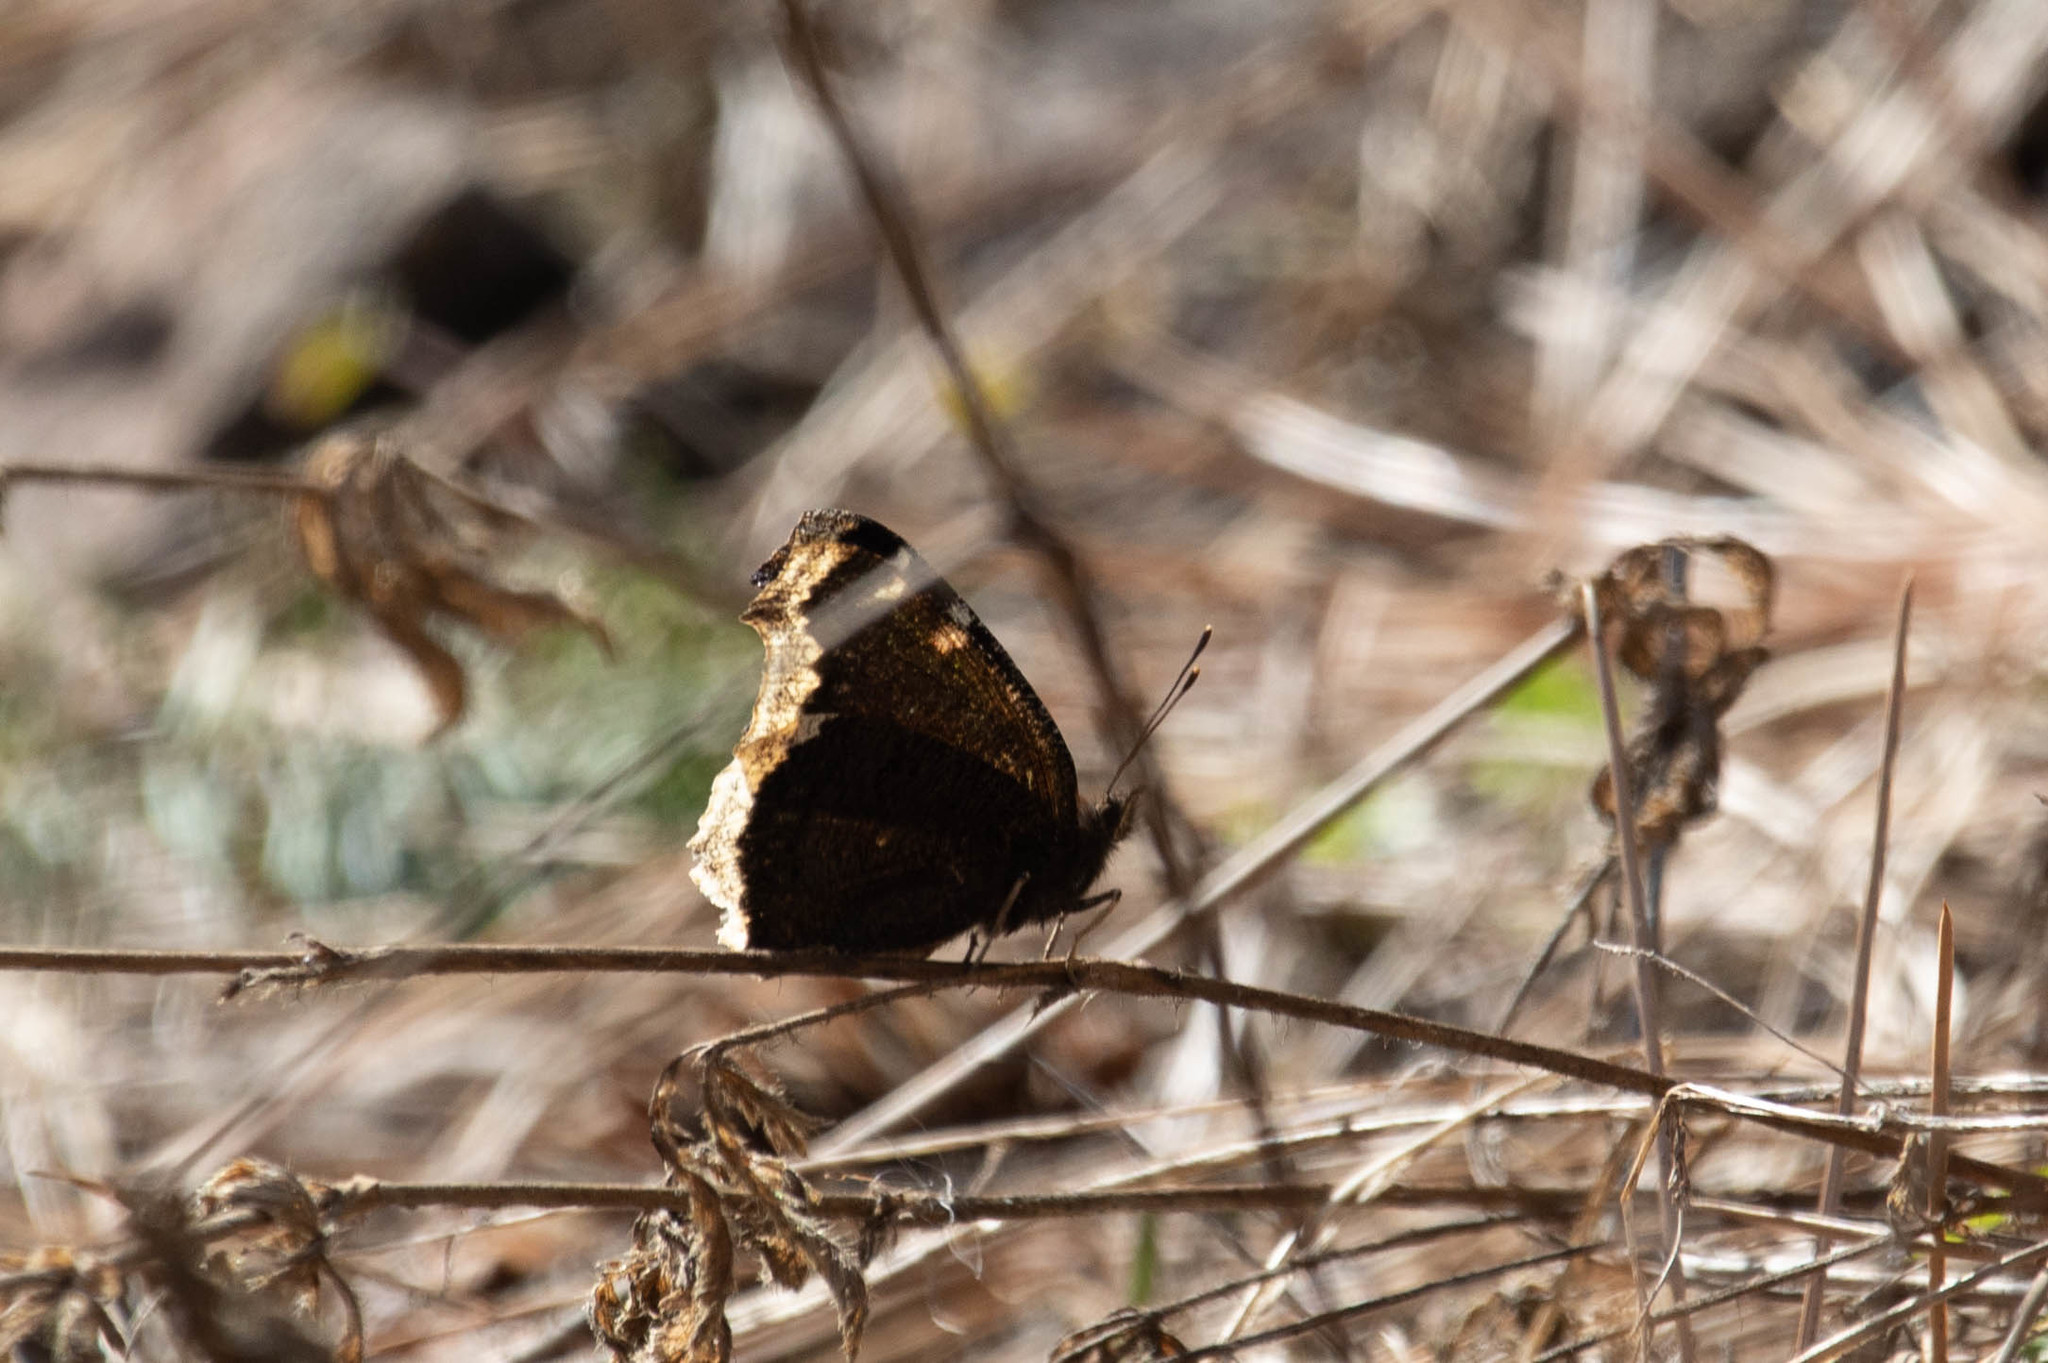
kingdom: Animalia
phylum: Arthropoda
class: Insecta
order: Lepidoptera
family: Nymphalidae
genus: Nymphalis
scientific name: Nymphalis antiopa
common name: Camberwell beauty
